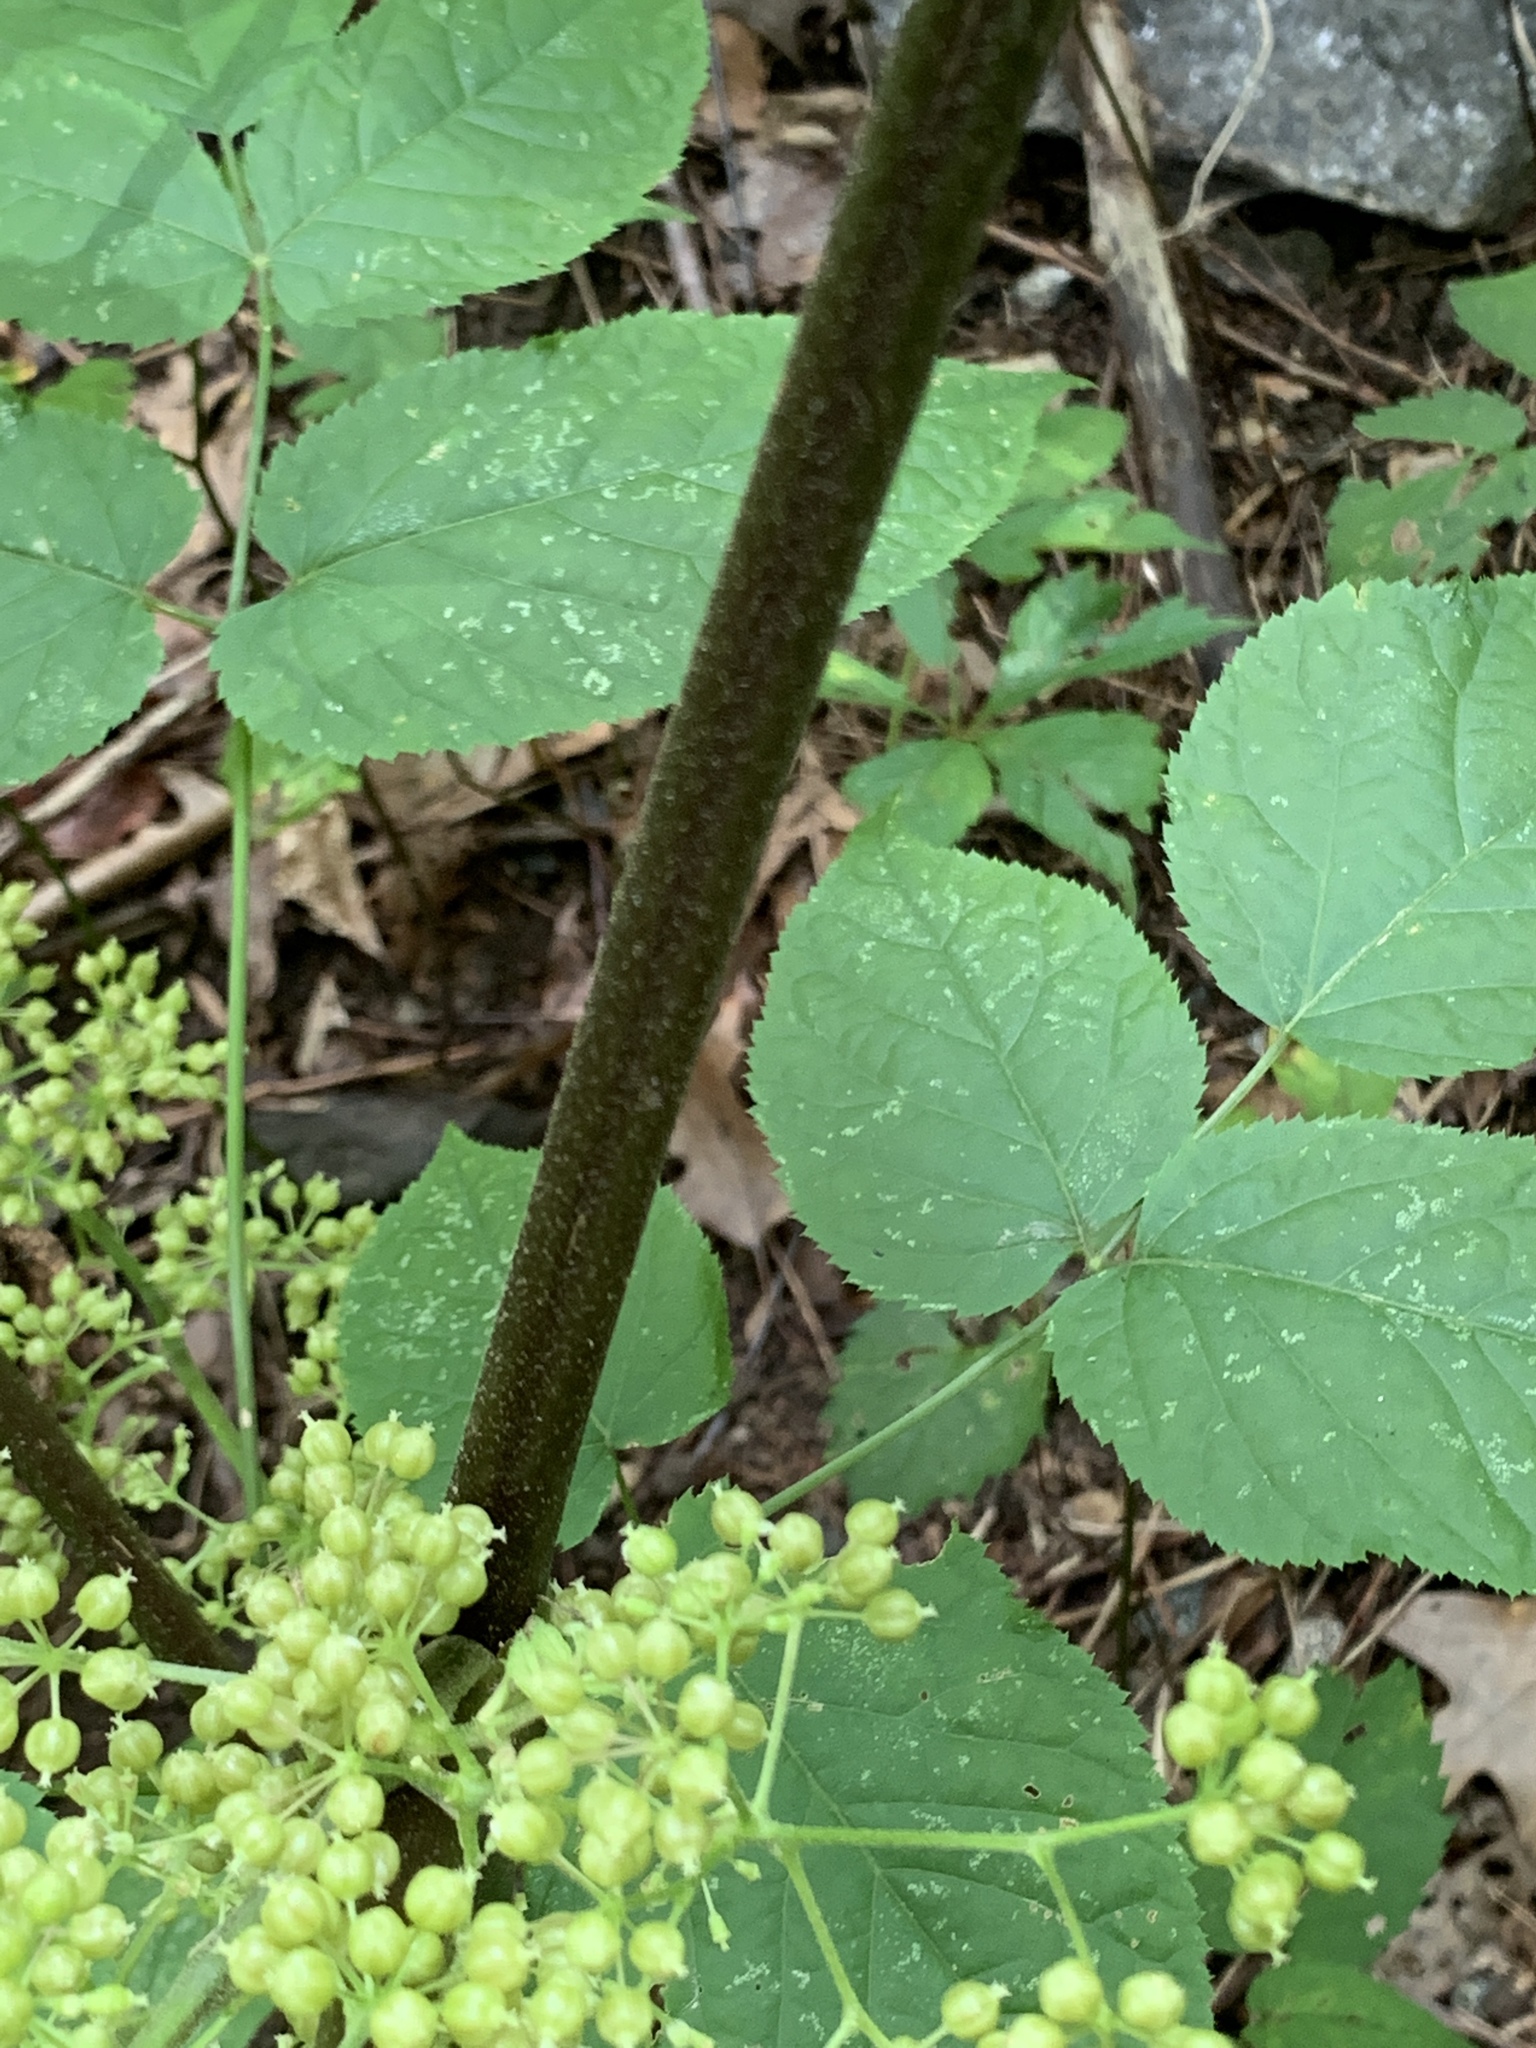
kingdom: Plantae
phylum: Tracheophyta
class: Magnoliopsida
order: Apiales
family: Araliaceae
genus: Aralia
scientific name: Aralia racemosa
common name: American-spikenard
